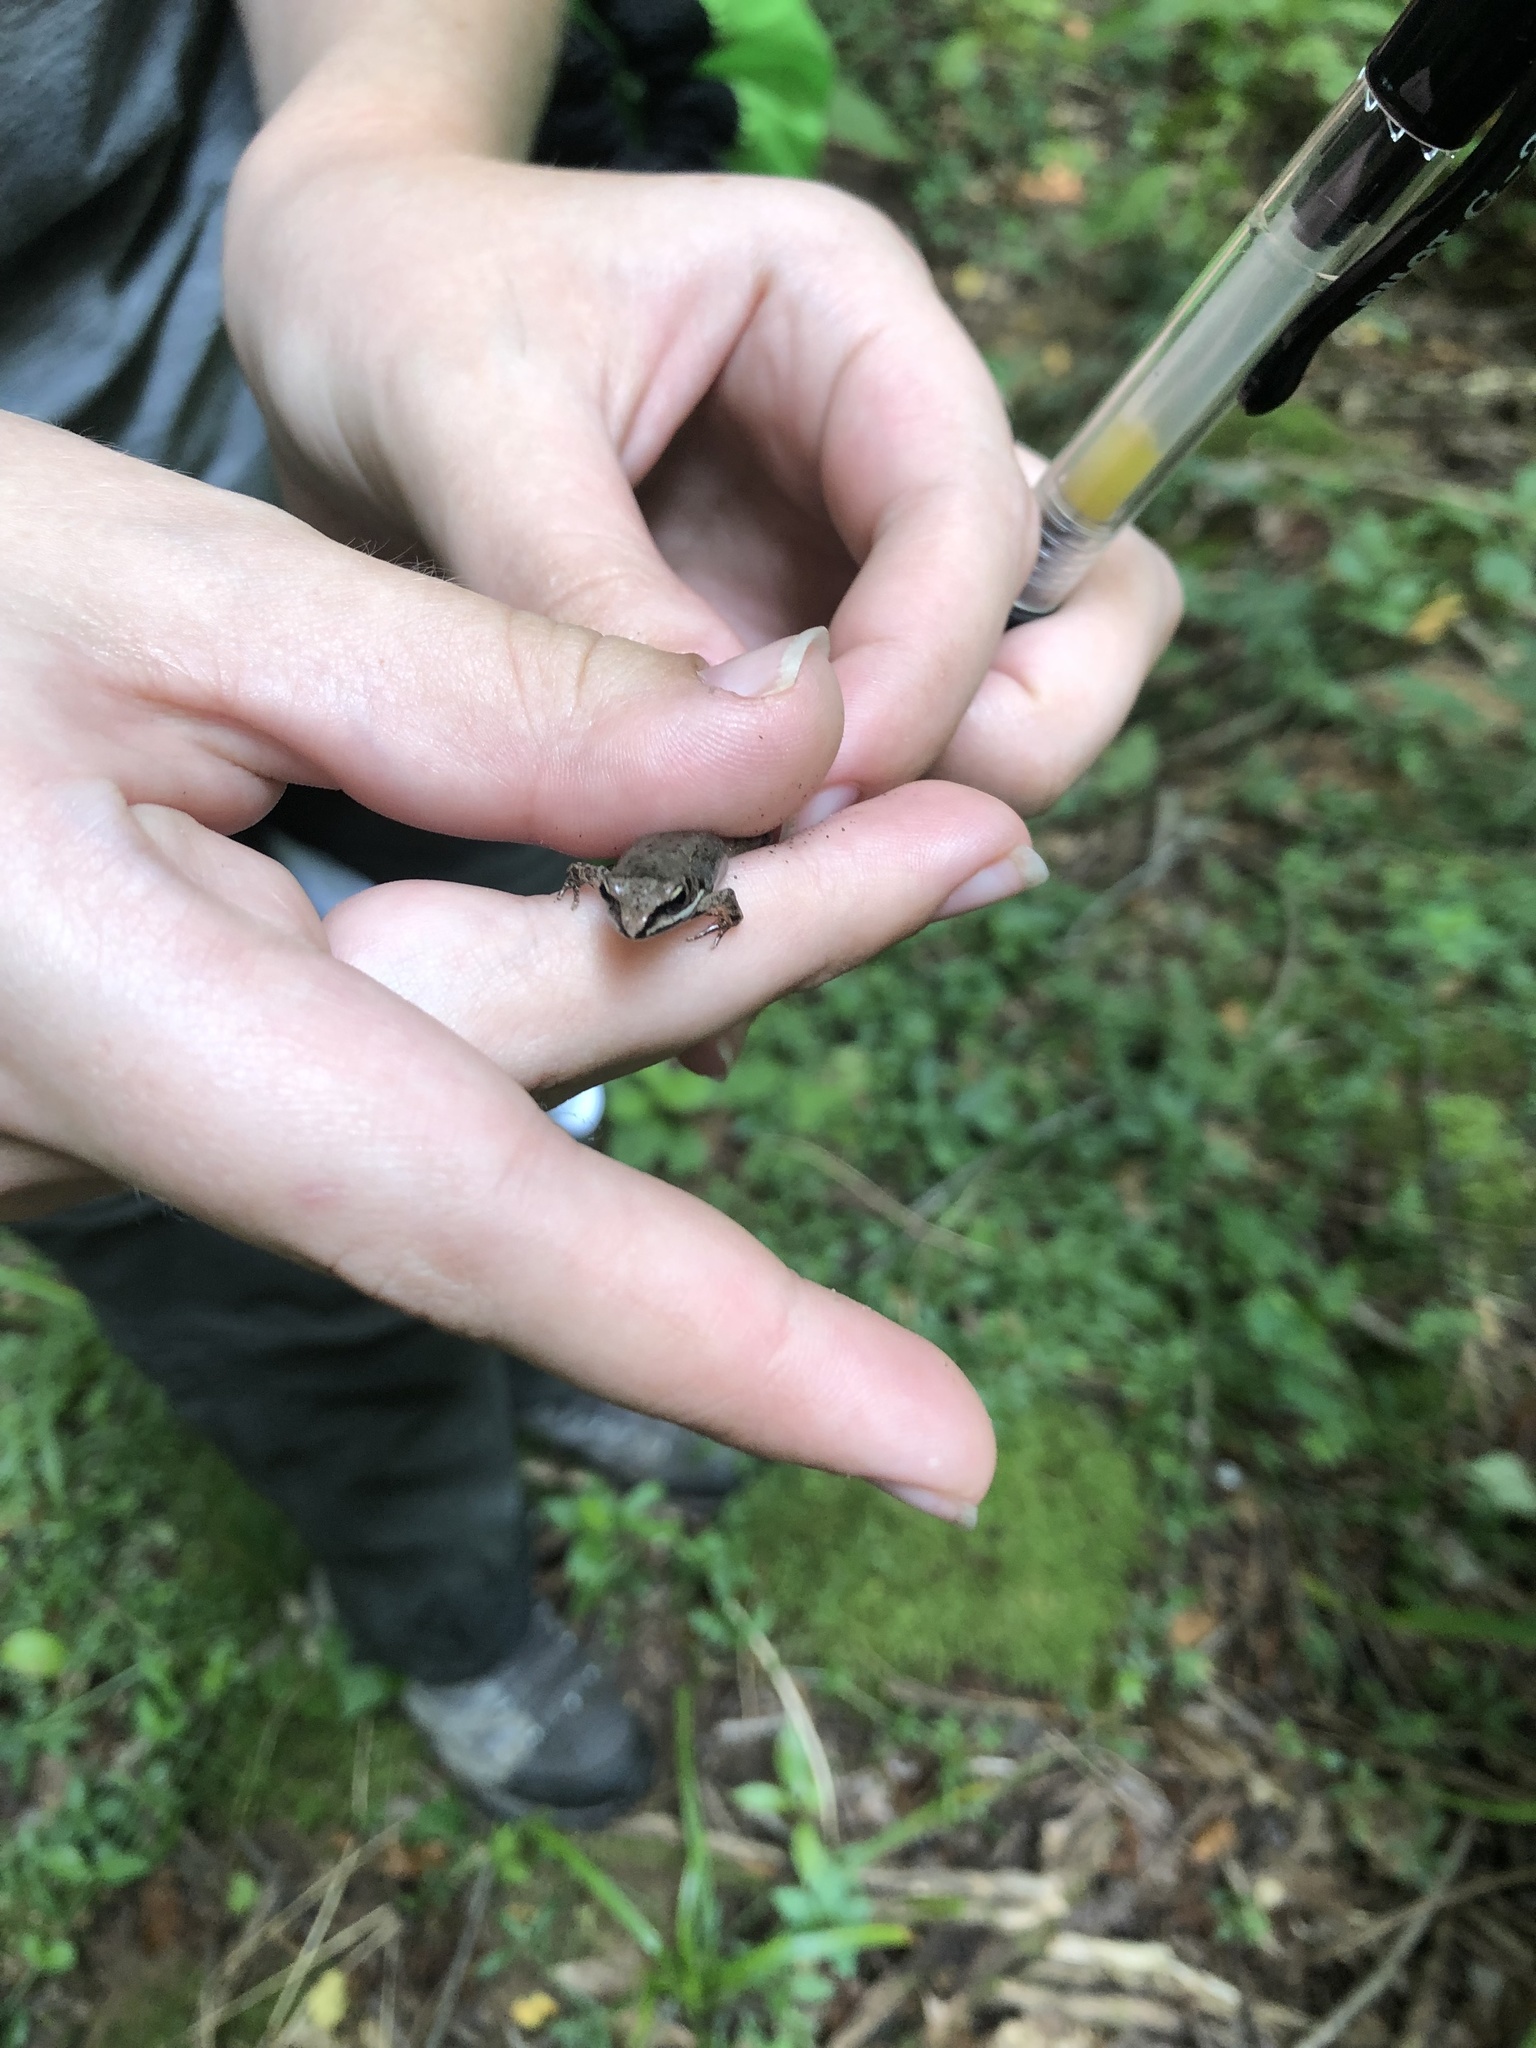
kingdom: Animalia
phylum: Chordata
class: Amphibia
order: Anura
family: Ranidae
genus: Lithobates
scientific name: Lithobates sylvaticus
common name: Wood frog
